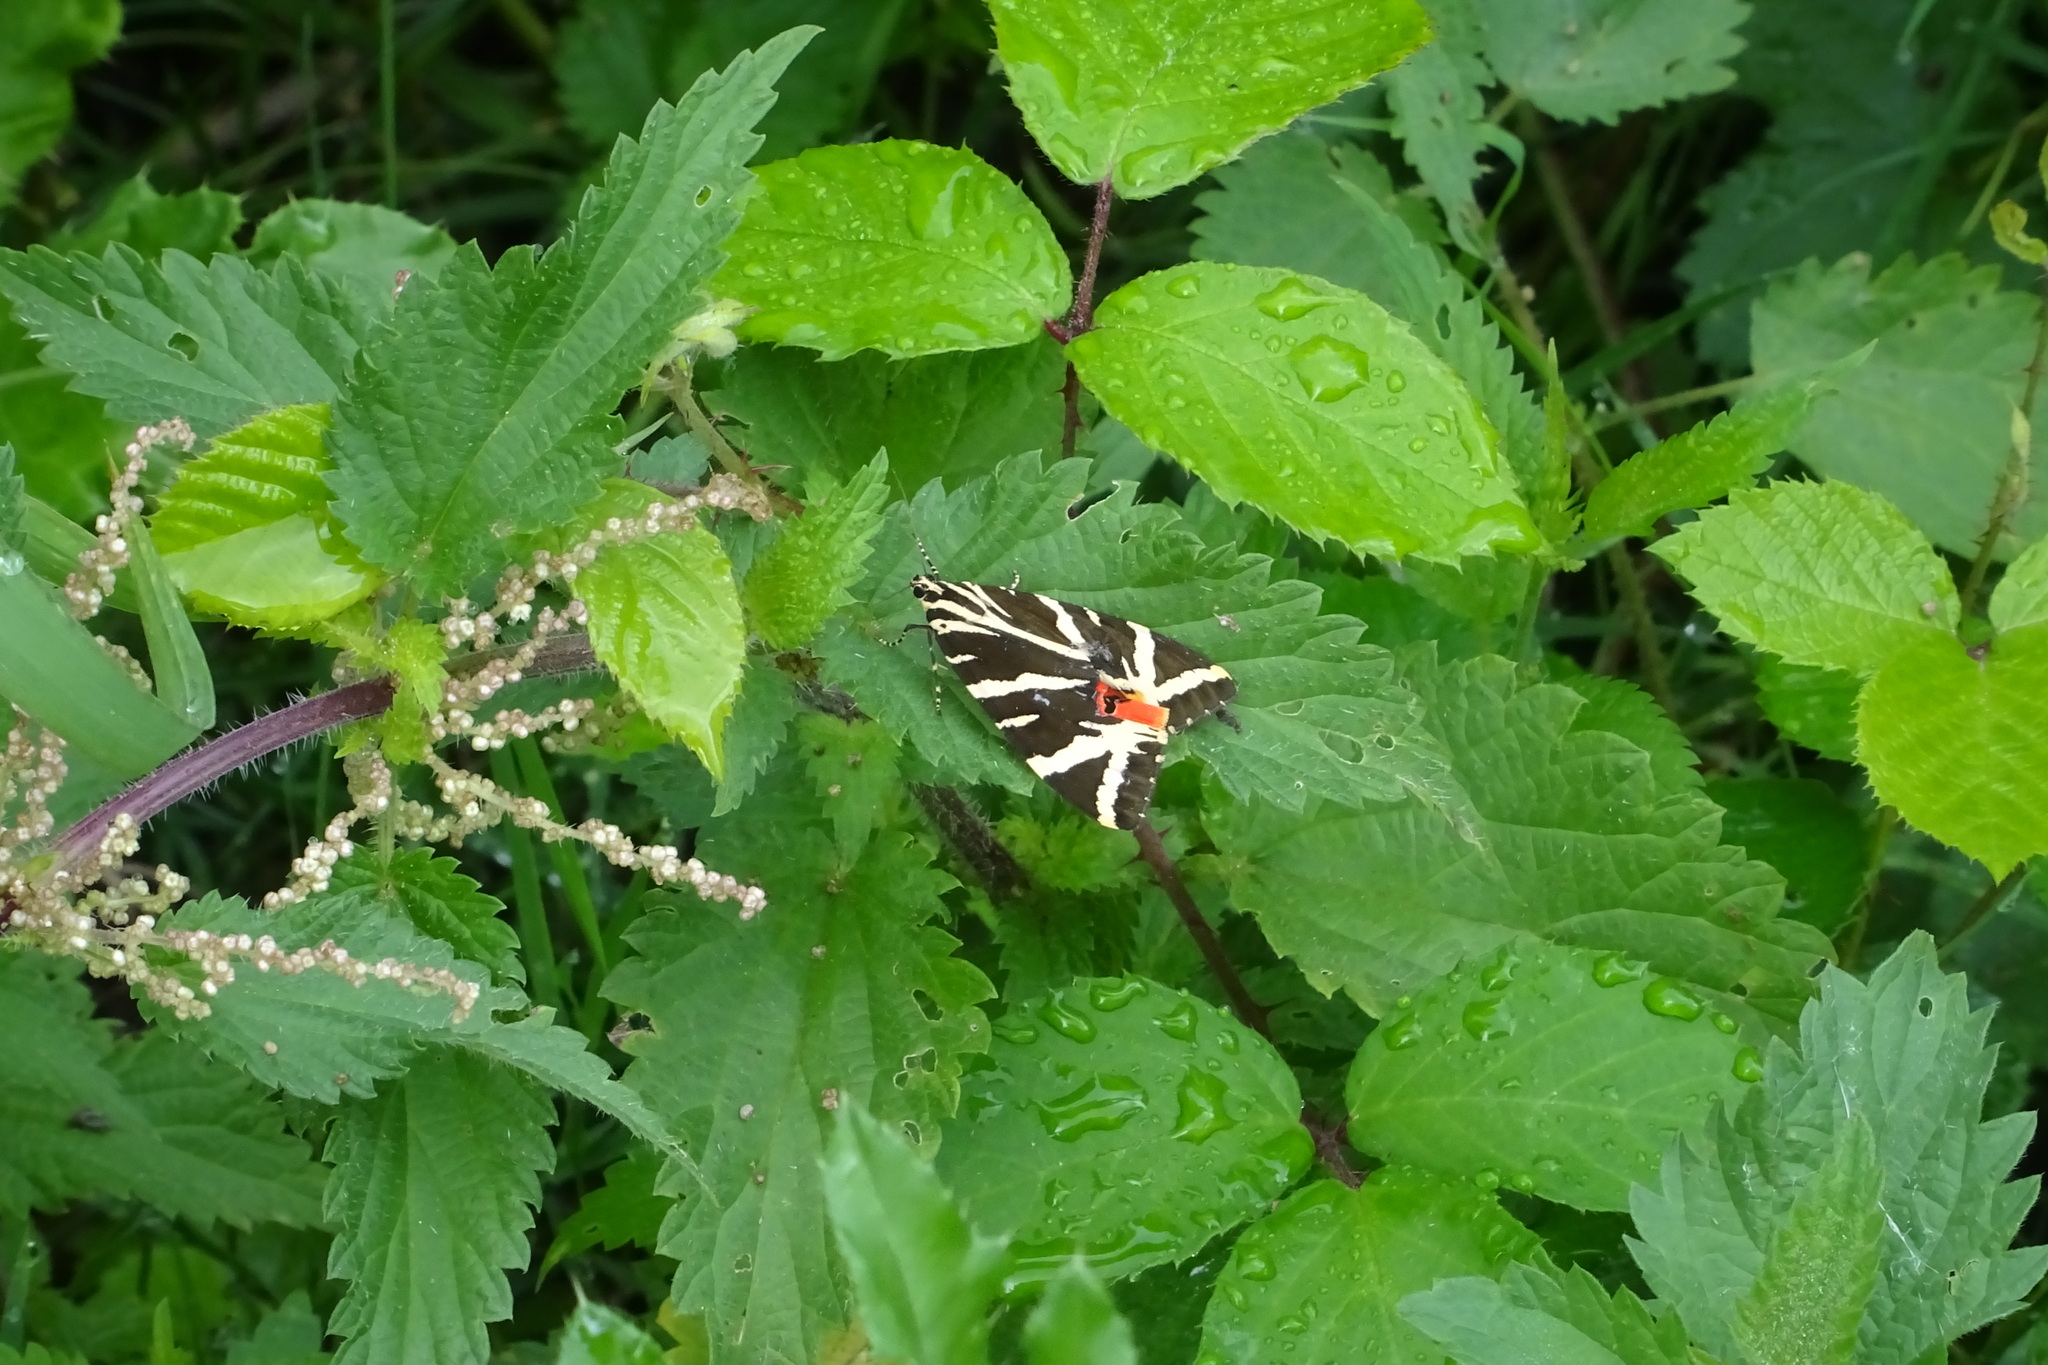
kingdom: Animalia
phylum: Arthropoda
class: Insecta
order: Lepidoptera
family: Erebidae
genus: Euplagia
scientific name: Euplagia quadripunctaria
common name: Jersey tiger
